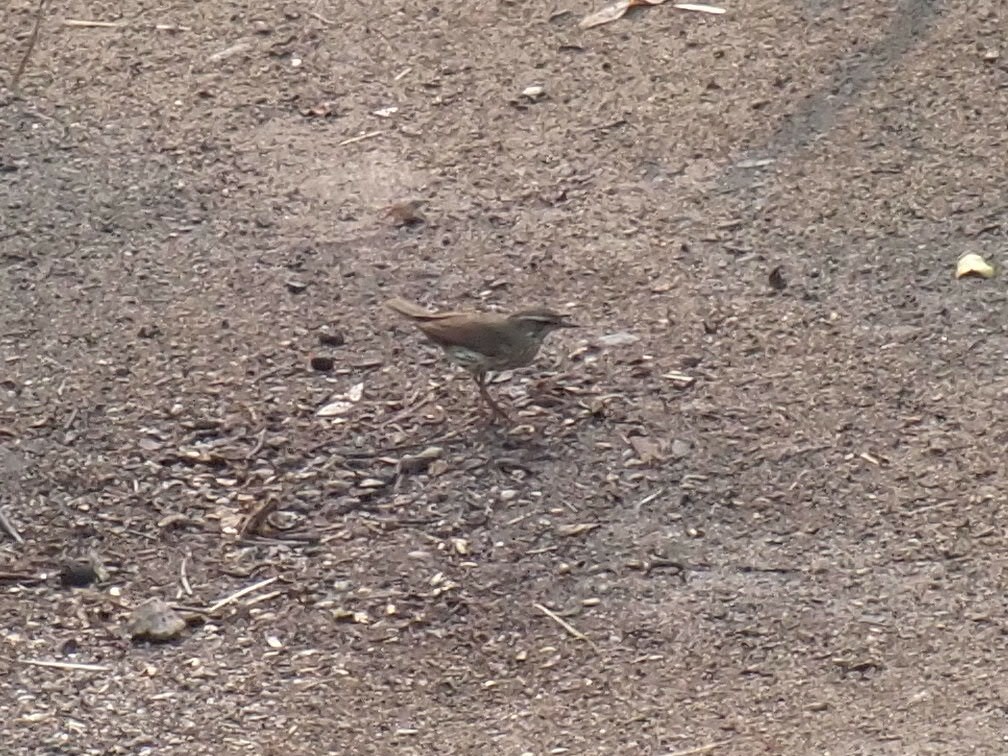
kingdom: Animalia
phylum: Chordata
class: Aves
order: Passeriformes
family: Parulidae
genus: Parkesia
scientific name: Parkesia noveboracensis
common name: Northern waterthrush
